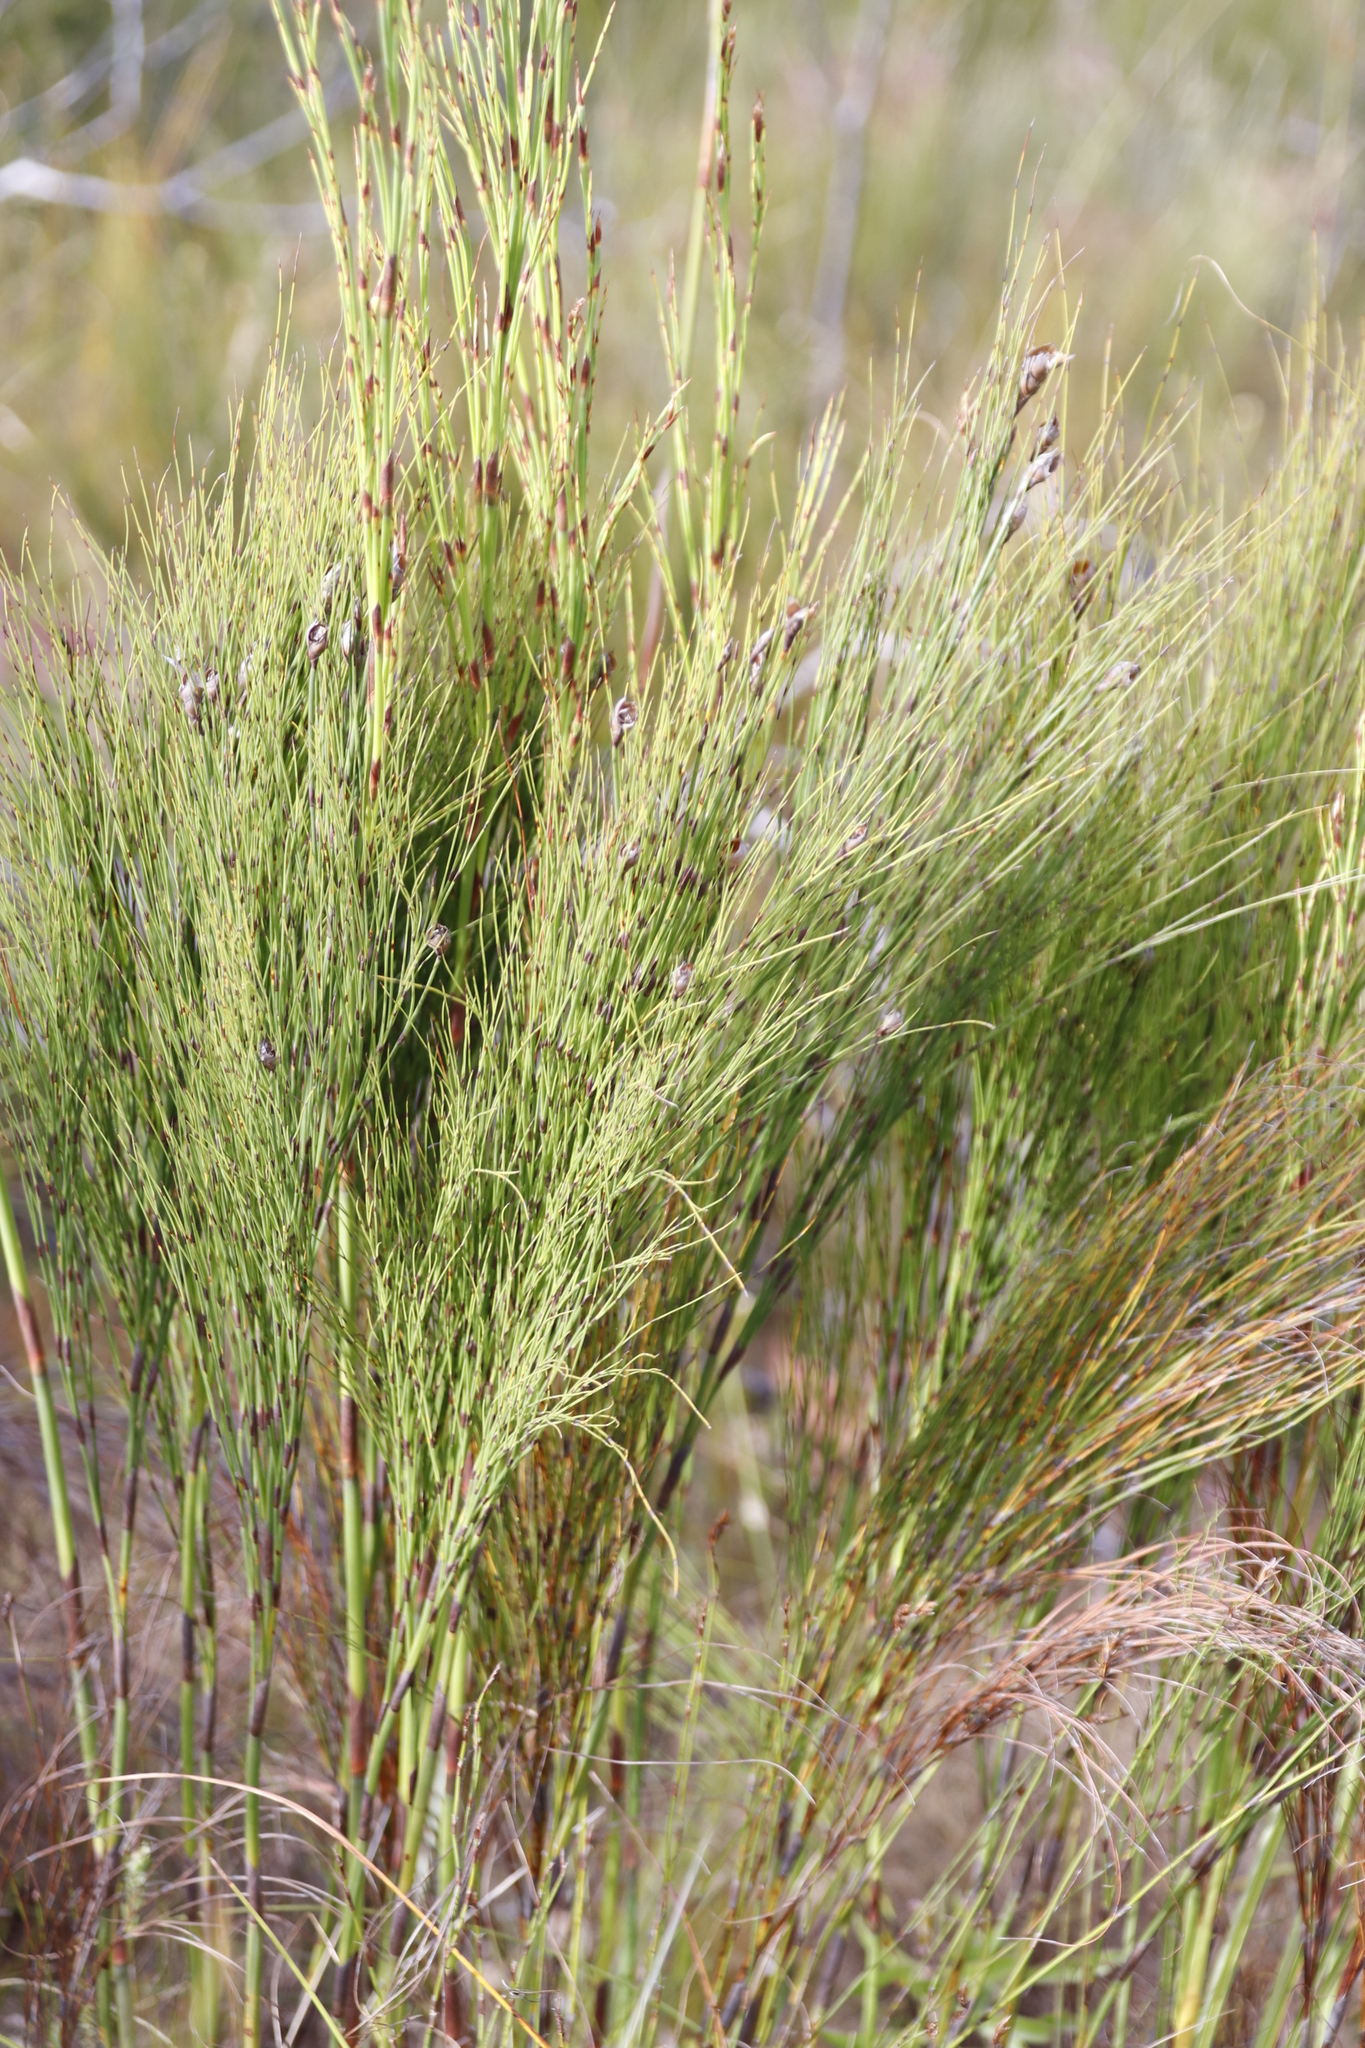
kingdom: Plantae
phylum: Tracheophyta
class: Liliopsida
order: Poales
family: Restionaceae
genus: Cannomois
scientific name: Cannomois virgata
